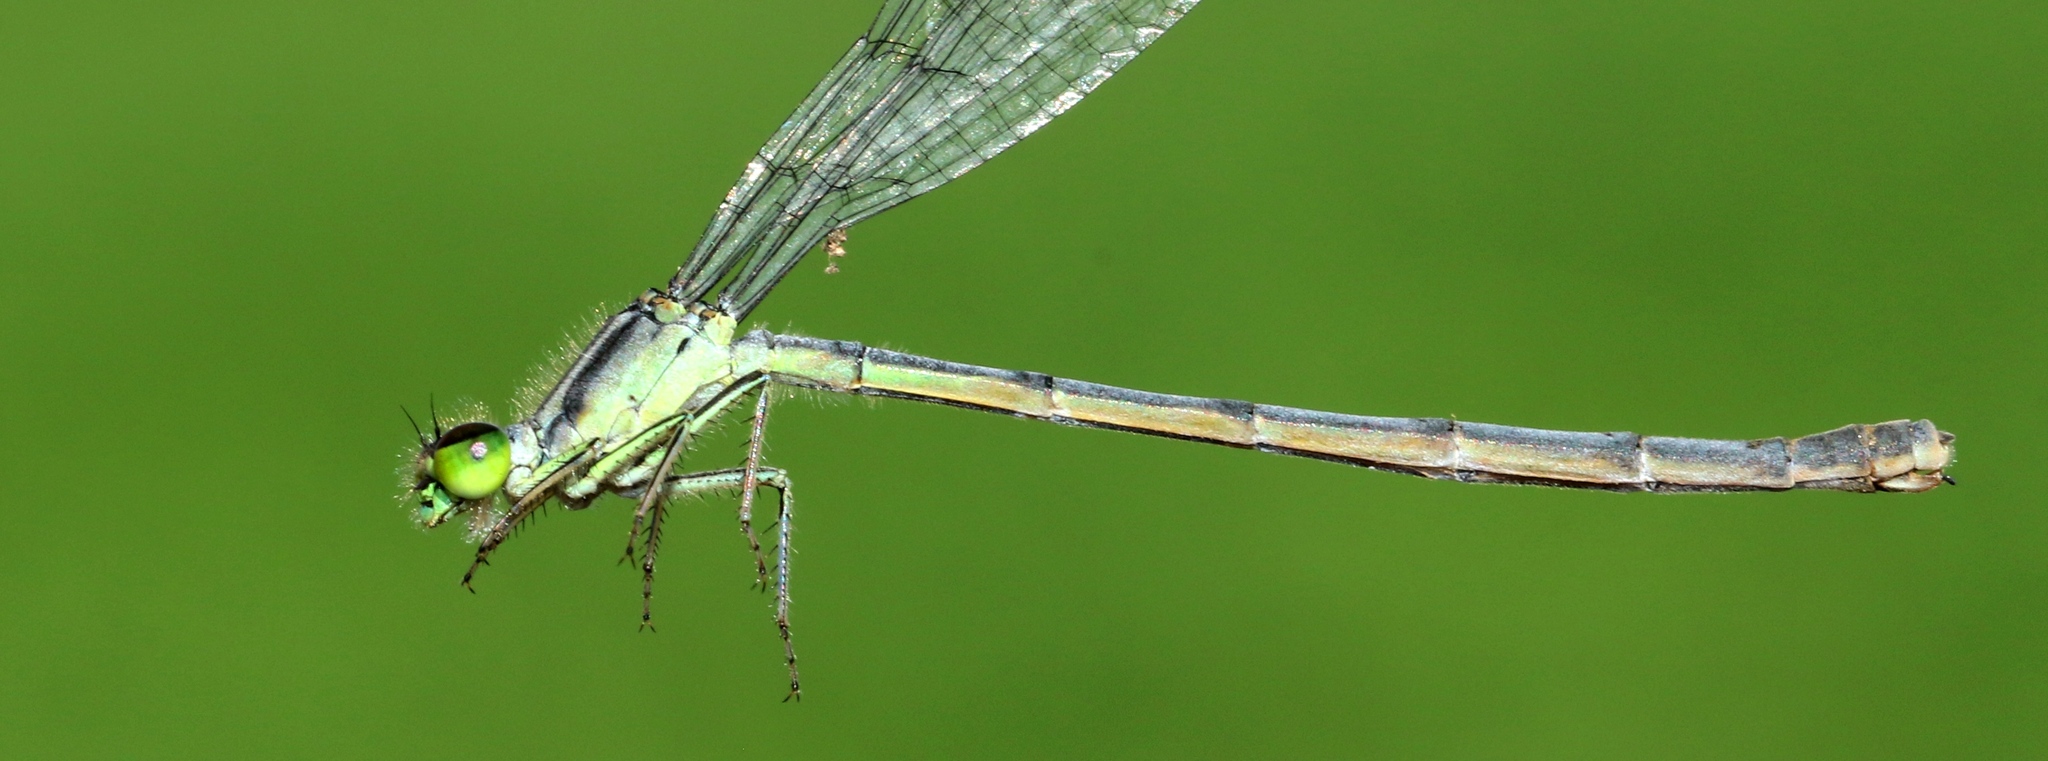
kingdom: Animalia
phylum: Arthropoda
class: Insecta
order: Odonata
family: Coenagrionidae
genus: Ischnura
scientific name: Ischnura verticalis
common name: Eastern forktail
